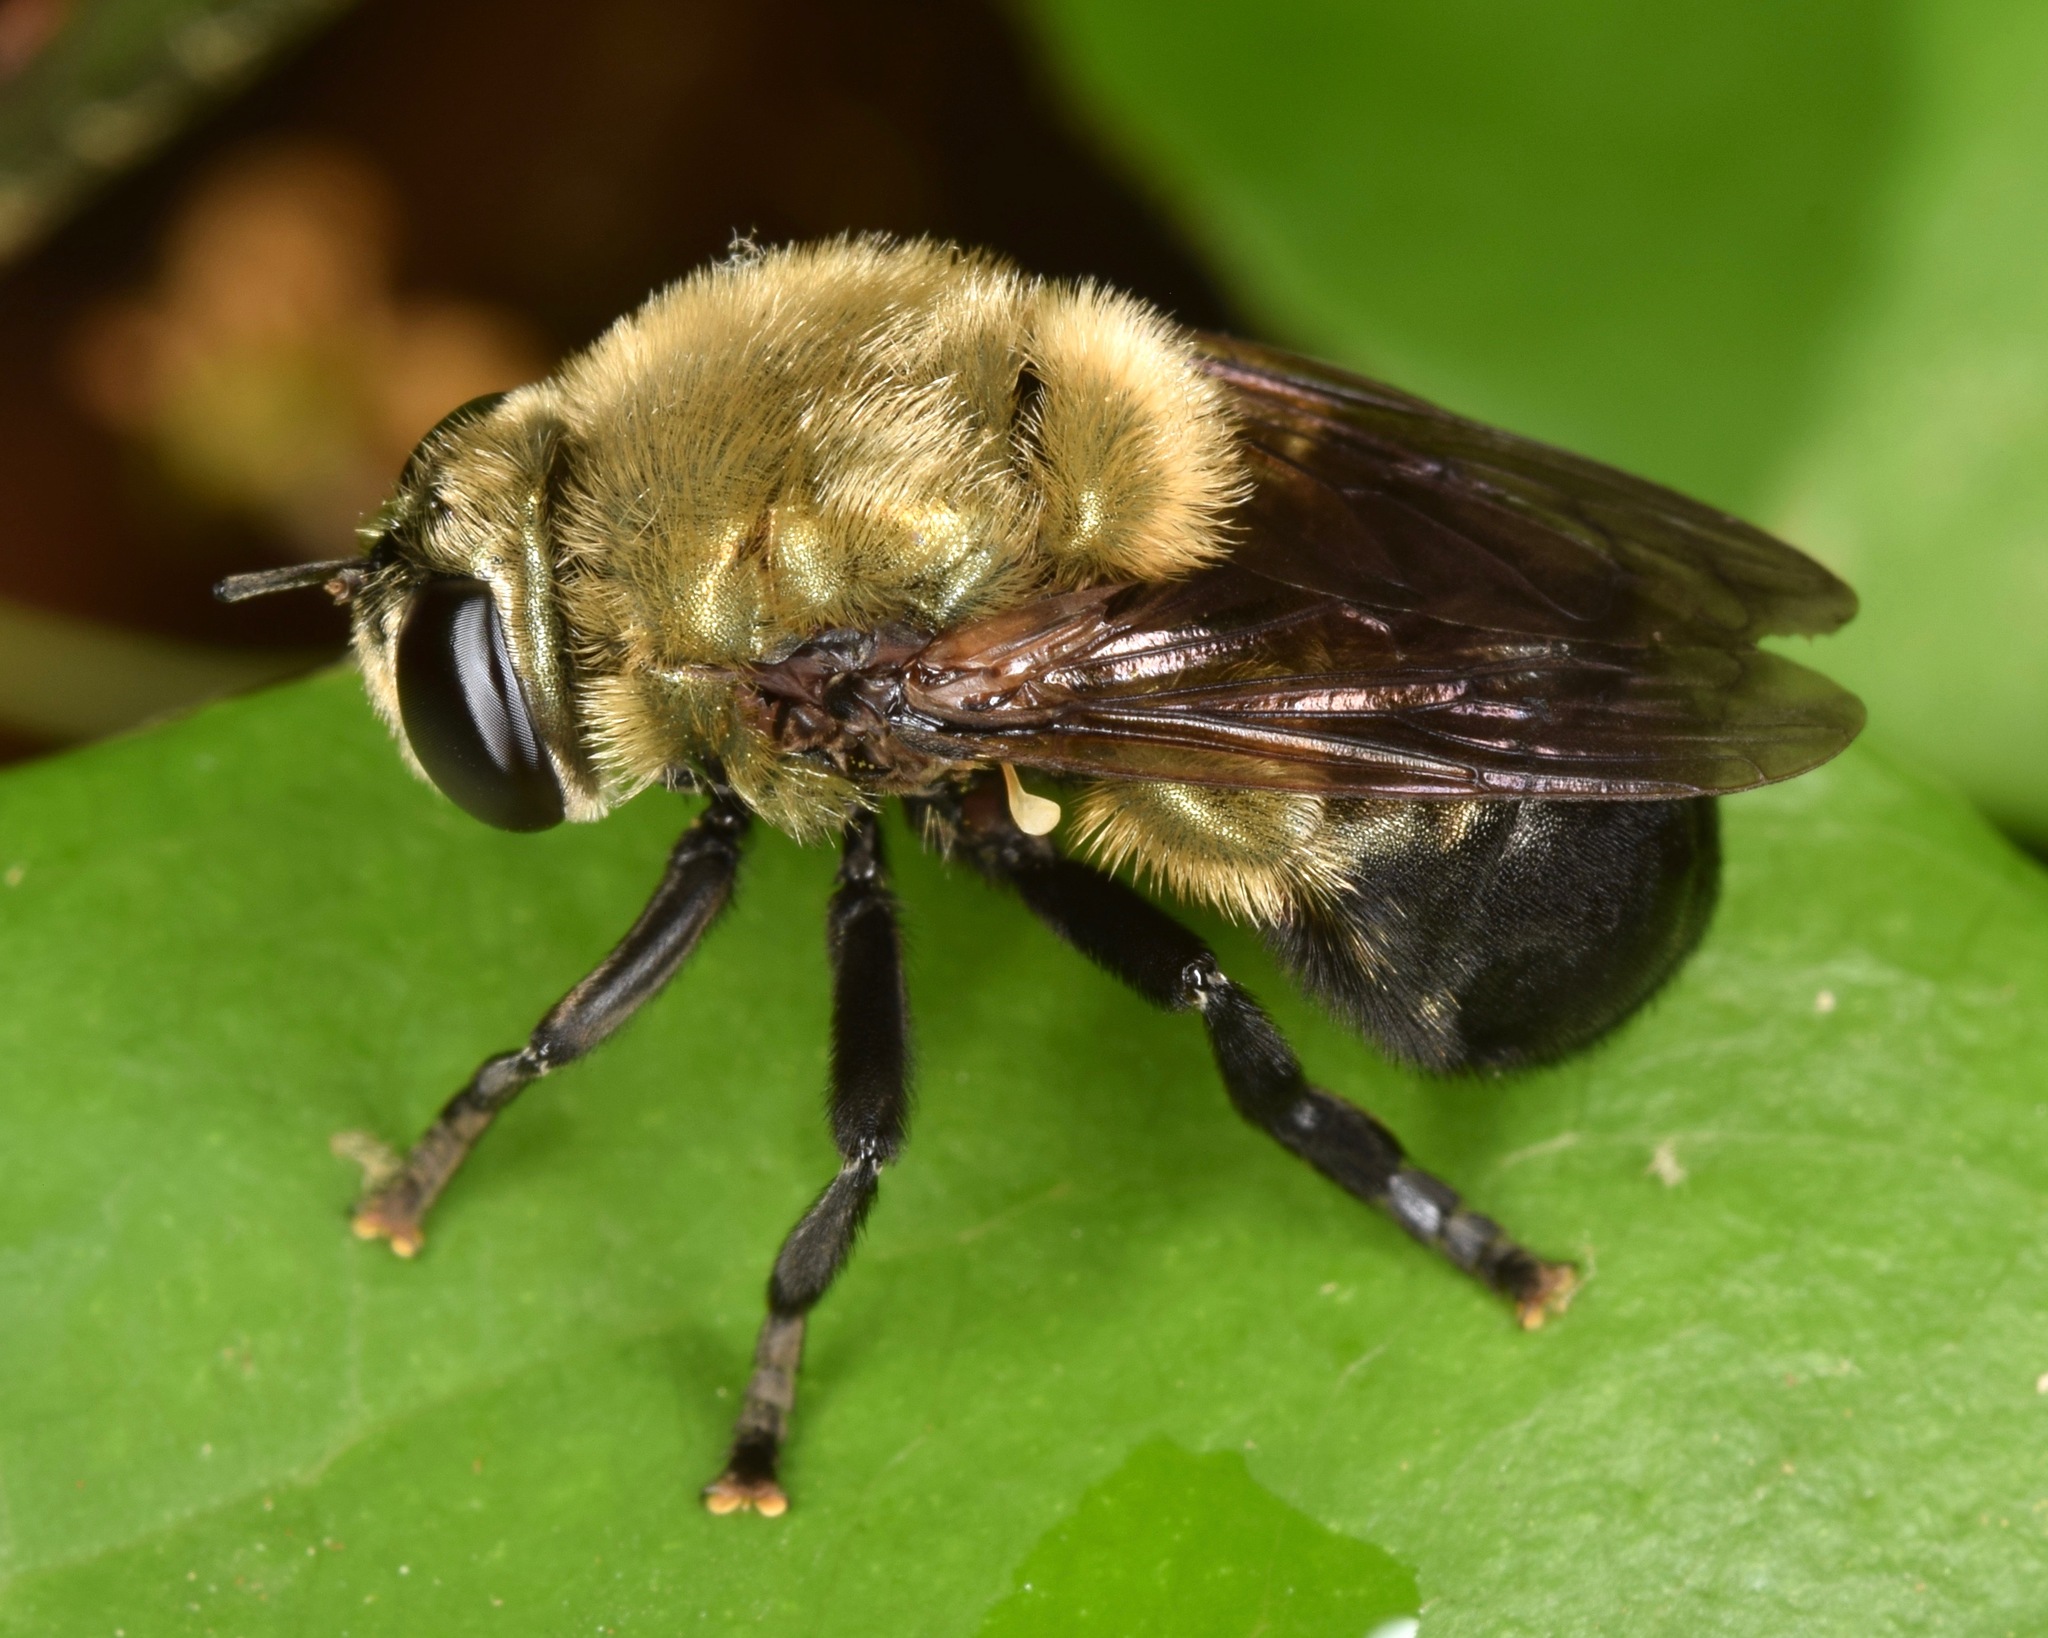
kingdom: Animalia
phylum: Arthropoda
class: Insecta
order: Diptera
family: Syrphidae
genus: Microdon
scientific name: Microdon megalogaster
